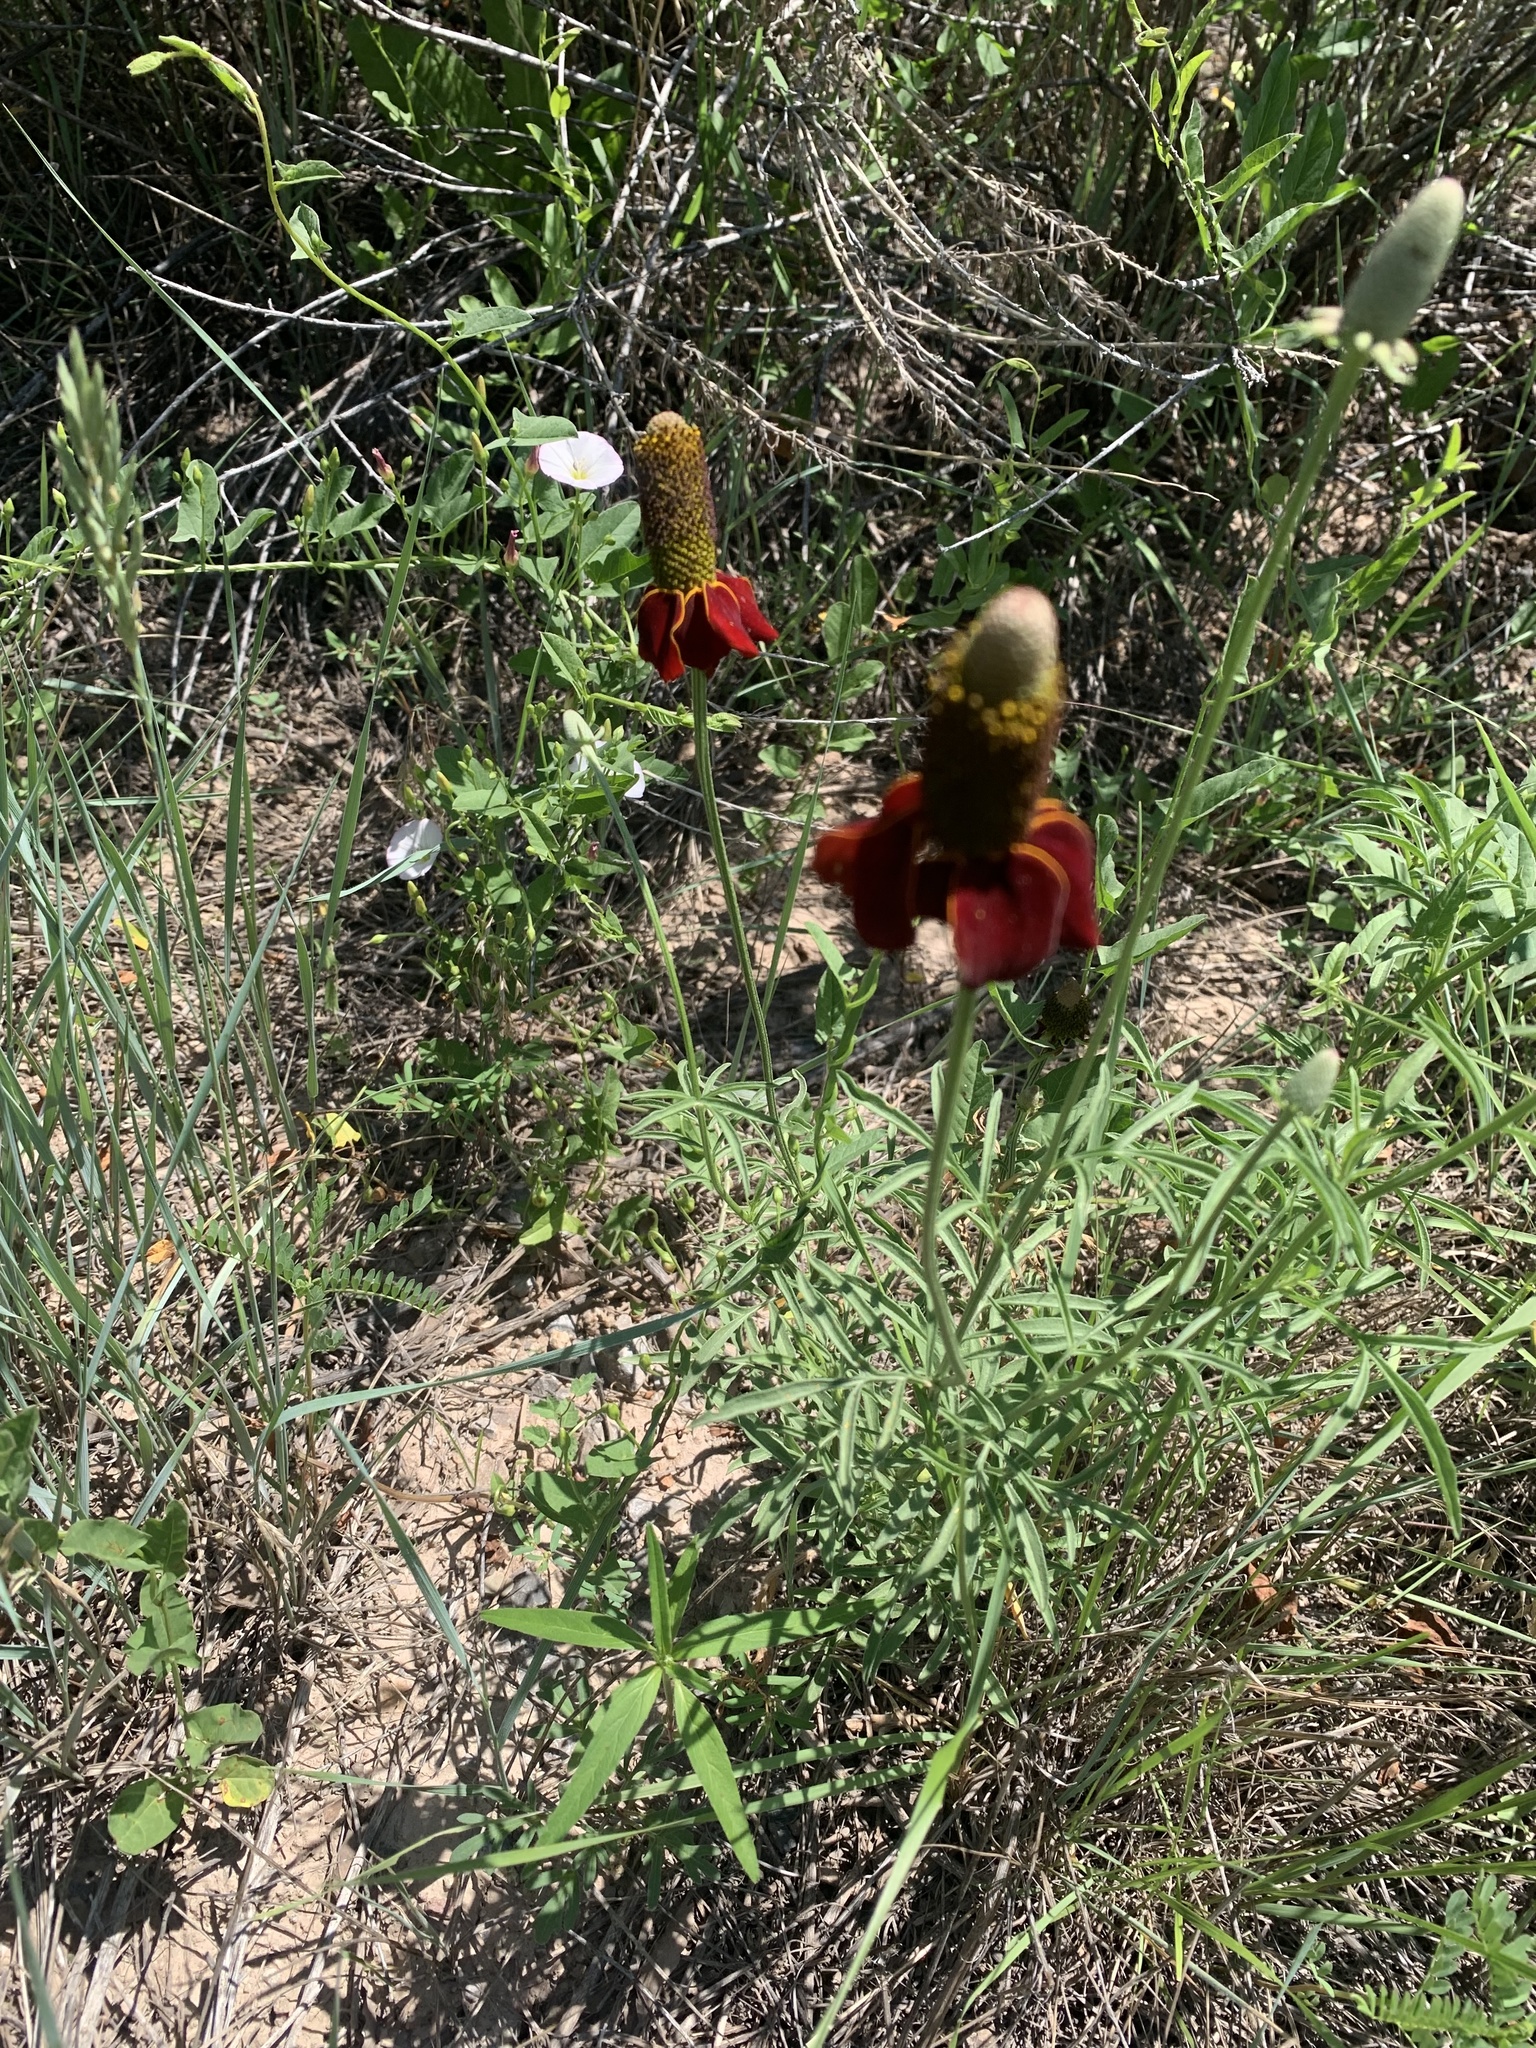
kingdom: Plantae
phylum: Tracheophyta
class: Magnoliopsida
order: Asterales
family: Asteraceae
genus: Ratibida
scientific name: Ratibida columnifera
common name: Prairie coneflower
